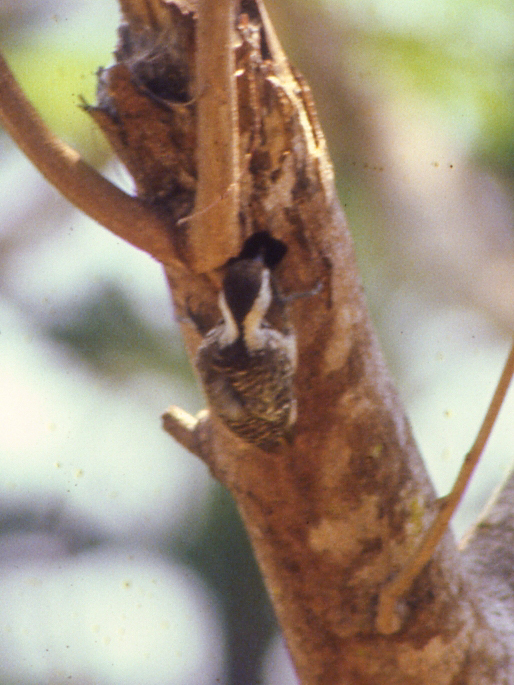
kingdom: Animalia
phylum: Chordata
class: Aves
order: Piciformes
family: Picidae
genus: Dendropicos
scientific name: Dendropicos fuscescens
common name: Cardinal woodpecker
